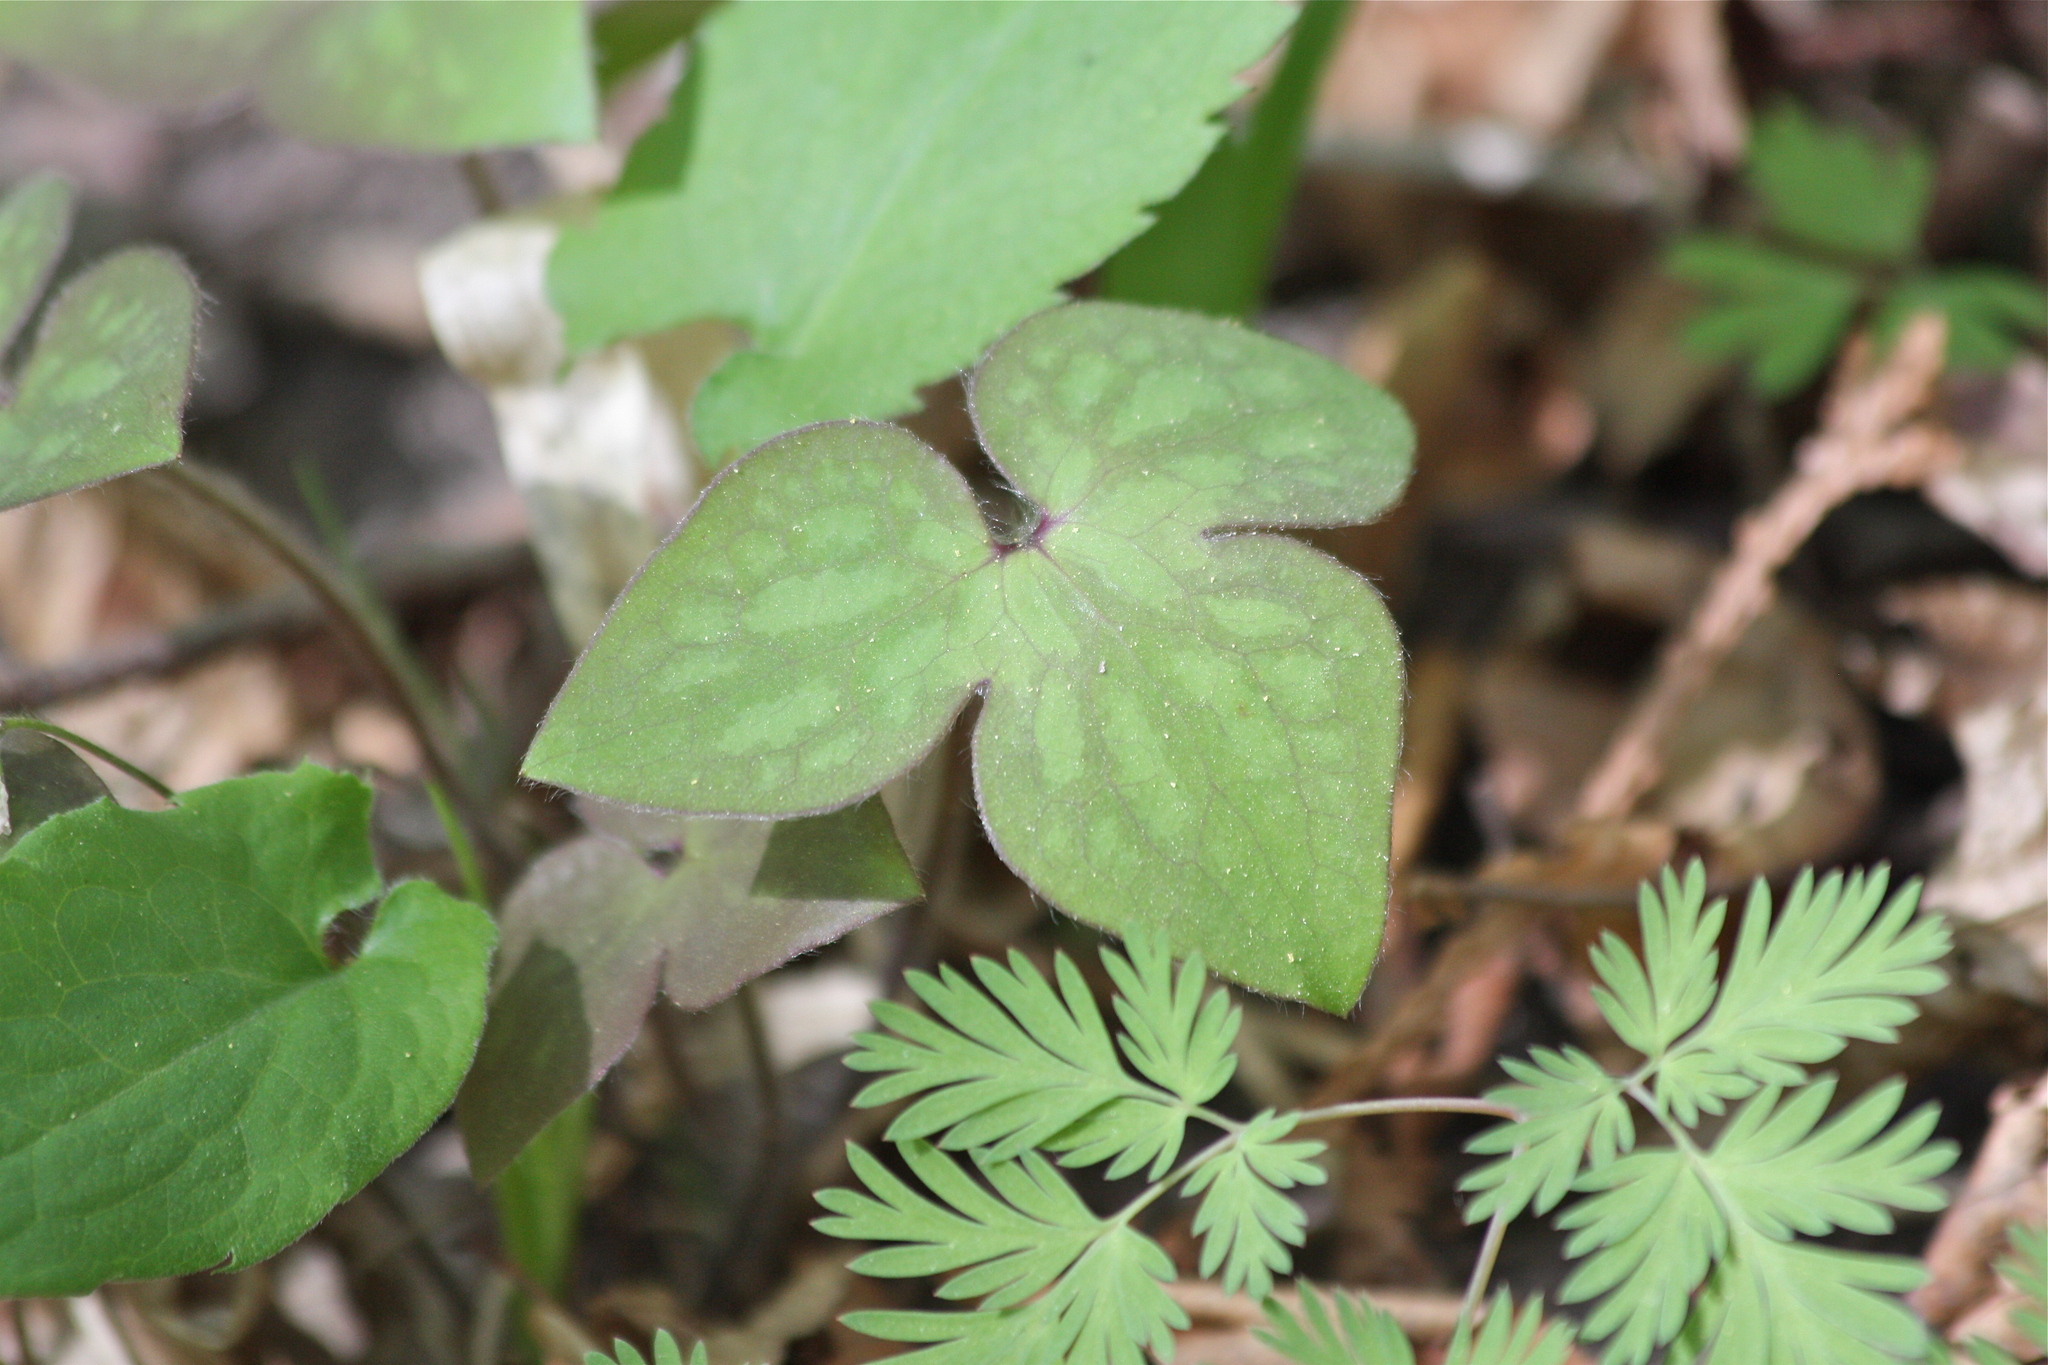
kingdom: Plantae
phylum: Tracheophyta
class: Magnoliopsida
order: Ranunculales
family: Ranunculaceae
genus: Hepatica
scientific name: Hepatica acutiloba
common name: Sharp-lobed hepatica
